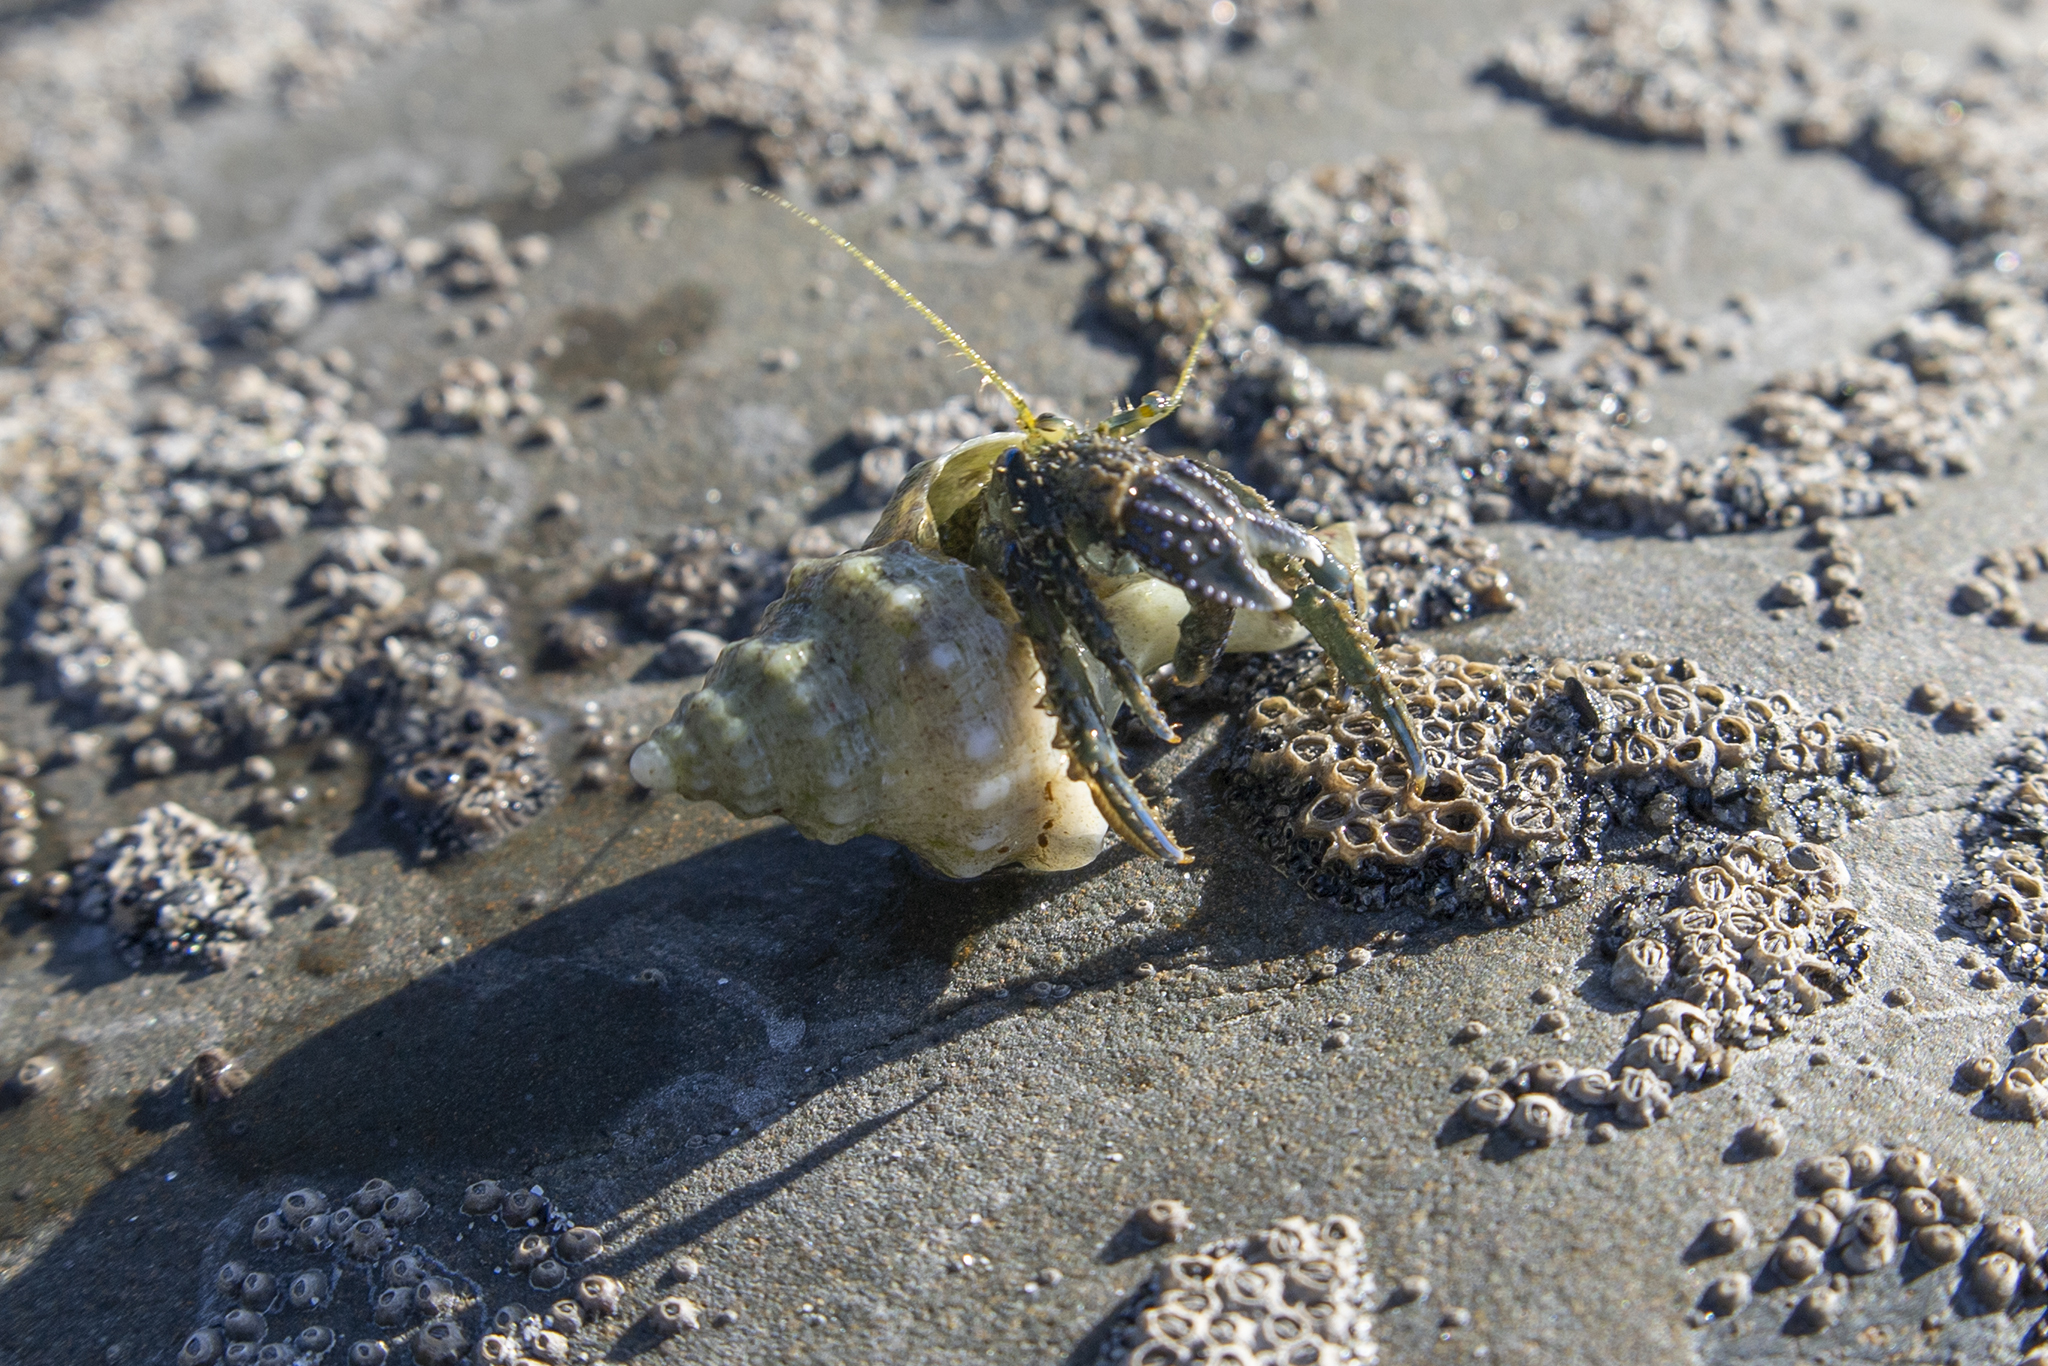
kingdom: Animalia
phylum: Arthropoda
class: Malacostraca
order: Decapoda
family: Paguridae
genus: Pagurus
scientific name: Pagurus novizealandiae
